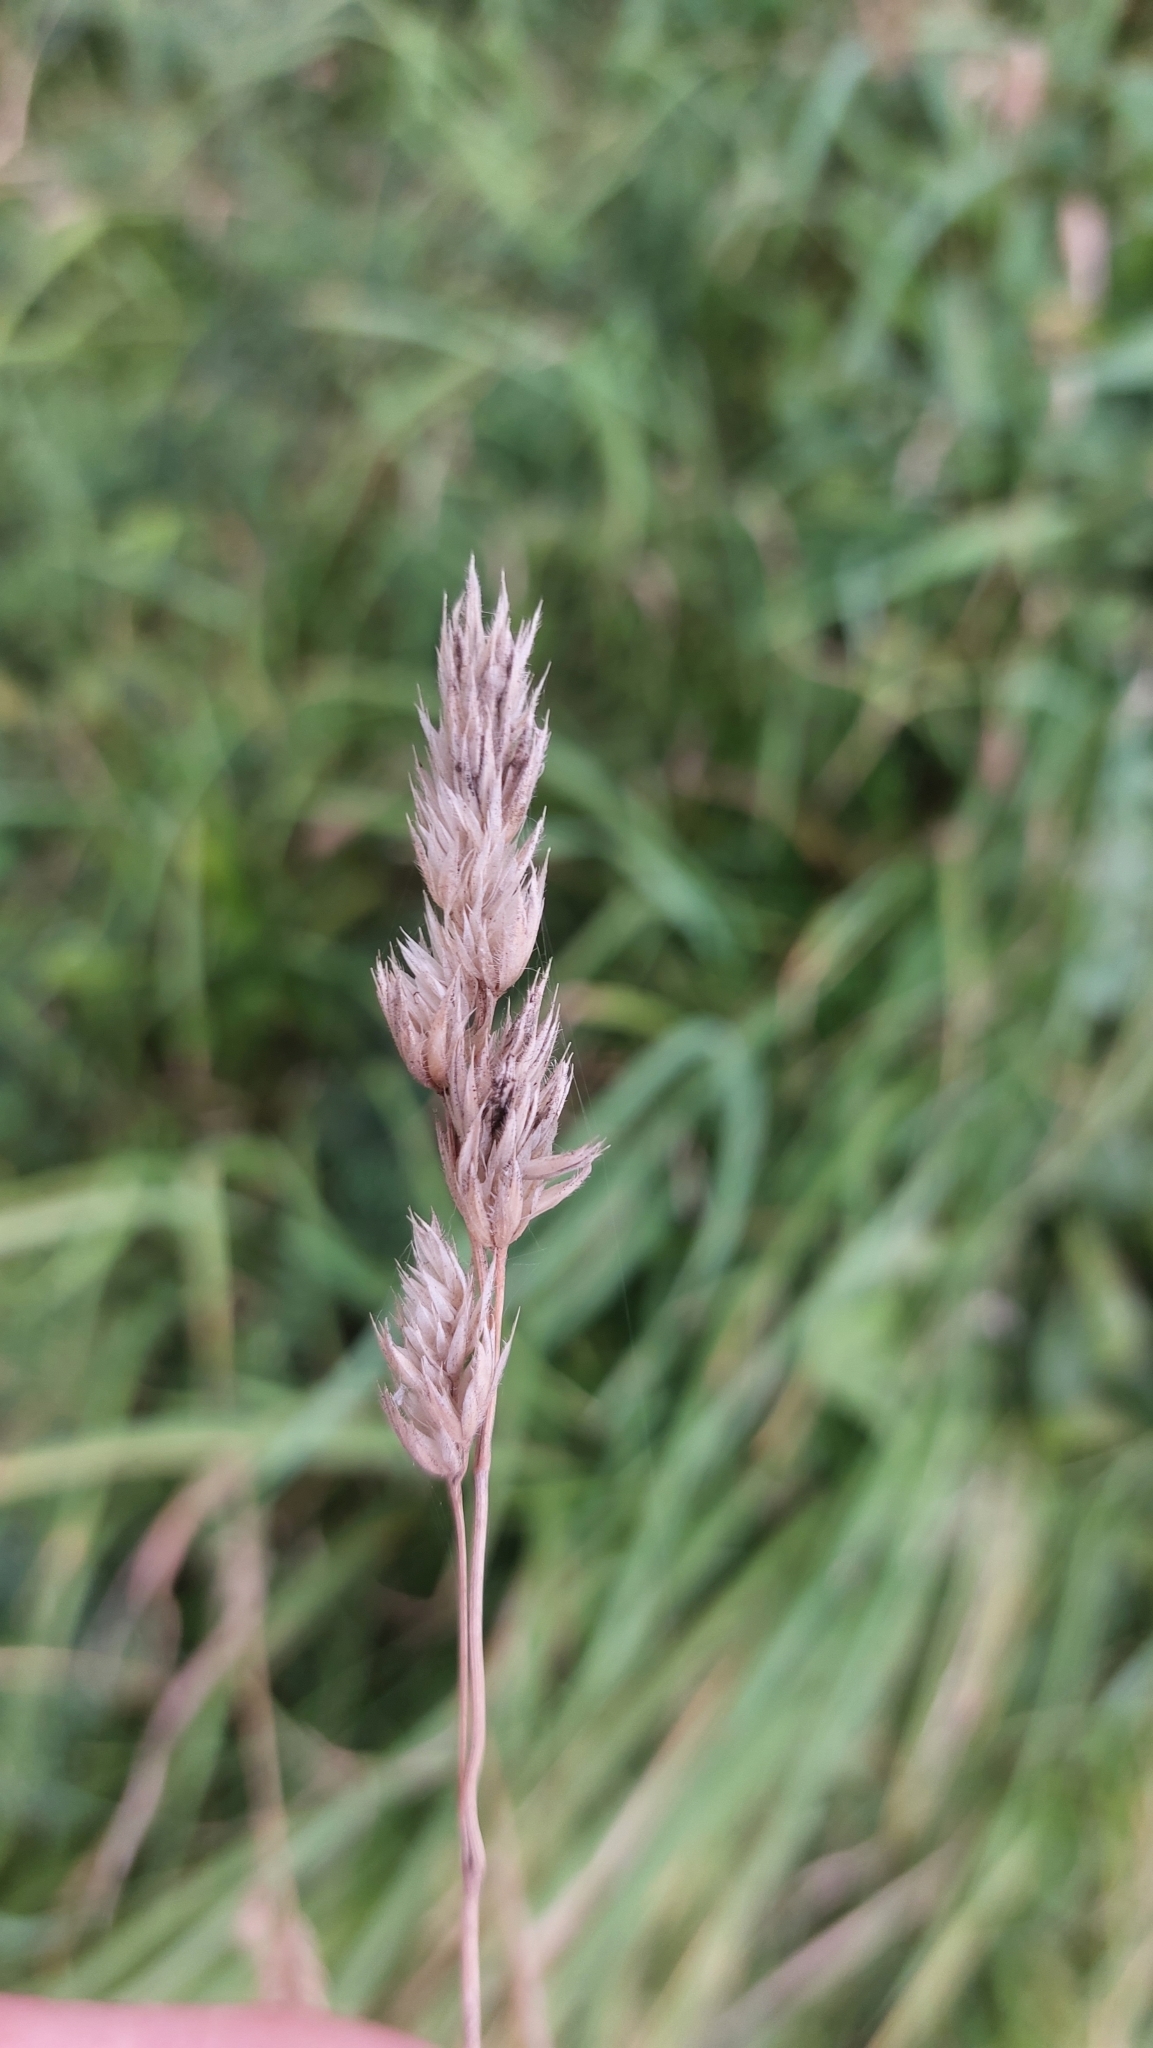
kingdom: Plantae
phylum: Tracheophyta
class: Liliopsida
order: Poales
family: Poaceae
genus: Dactylis
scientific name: Dactylis glomerata
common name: Orchardgrass
